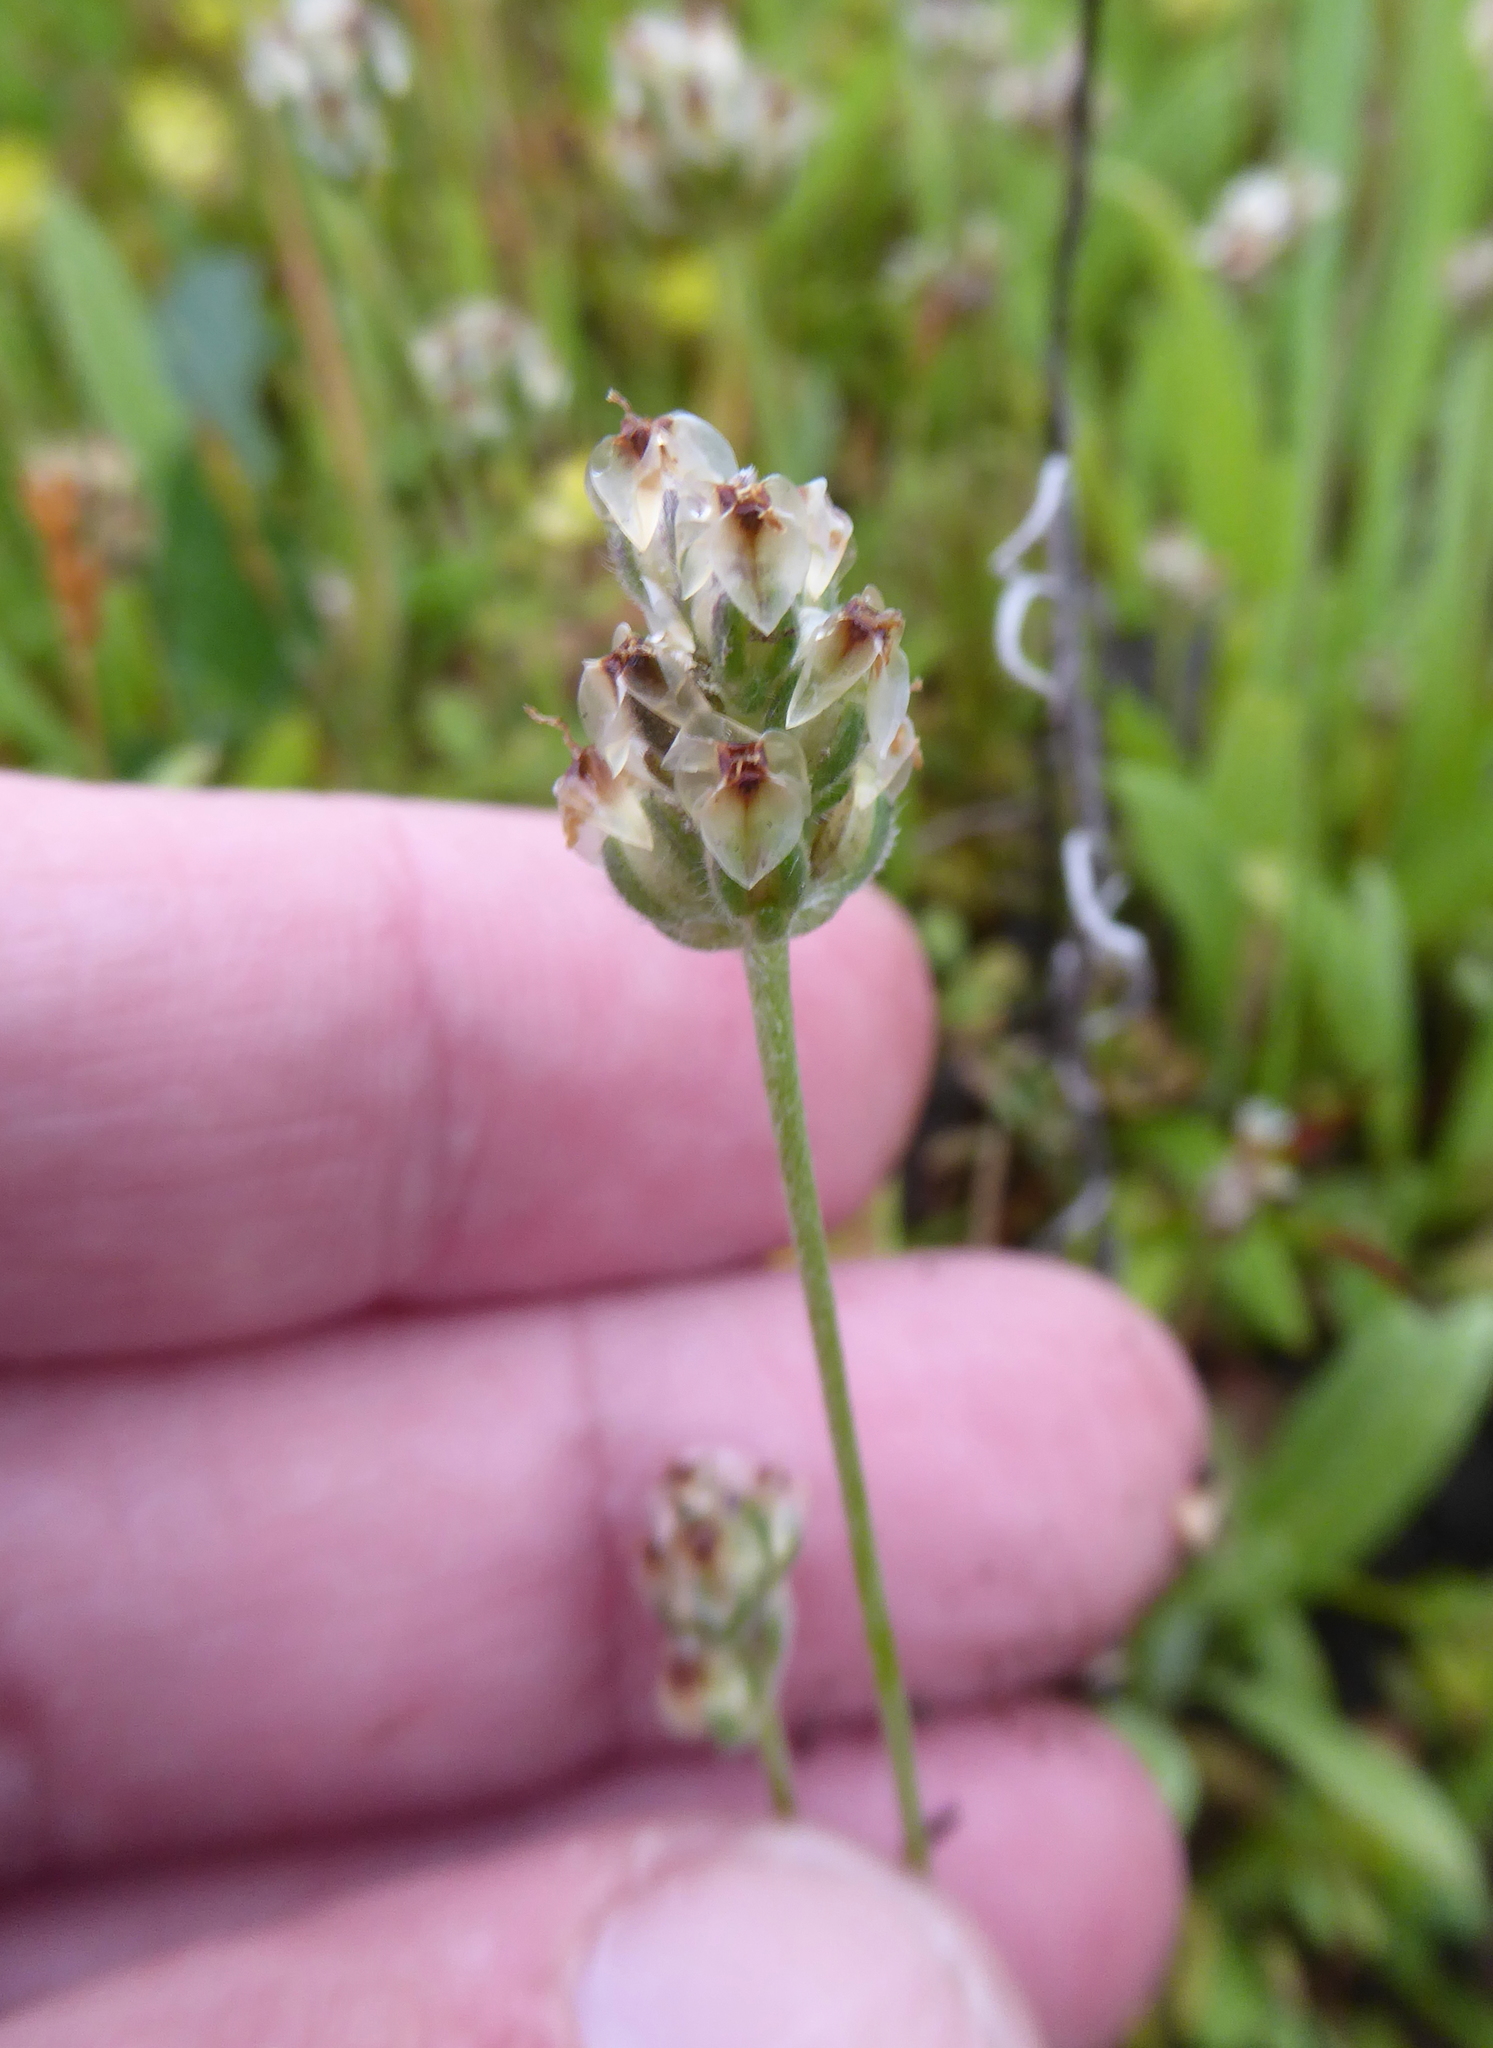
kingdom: Plantae
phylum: Tracheophyta
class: Magnoliopsida
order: Lamiales
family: Plantaginaceae
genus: Plantago
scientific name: Plantago erecta
